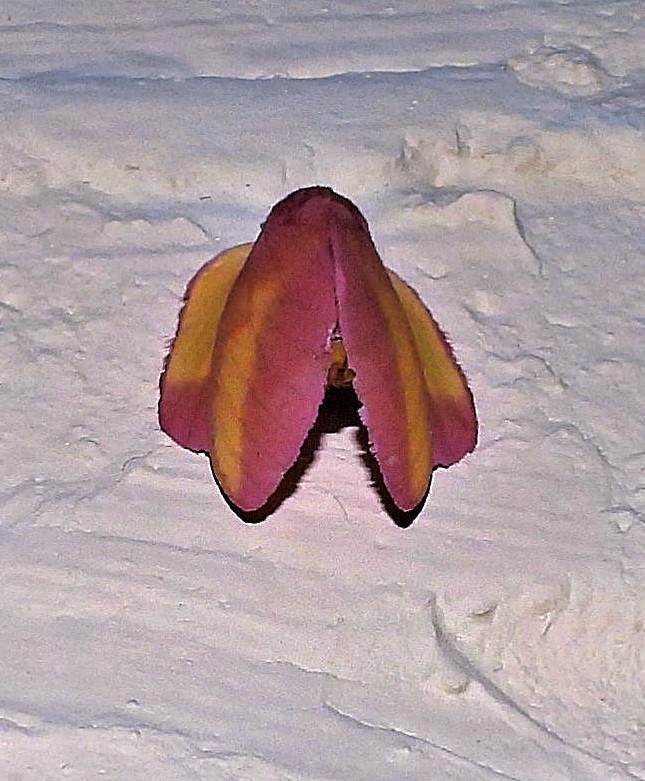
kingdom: Animalia
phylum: Arthropoda
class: Insecta
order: Lepidoptera
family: Saturniidae
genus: Psilopygida
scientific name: Psilopygida walkeri
